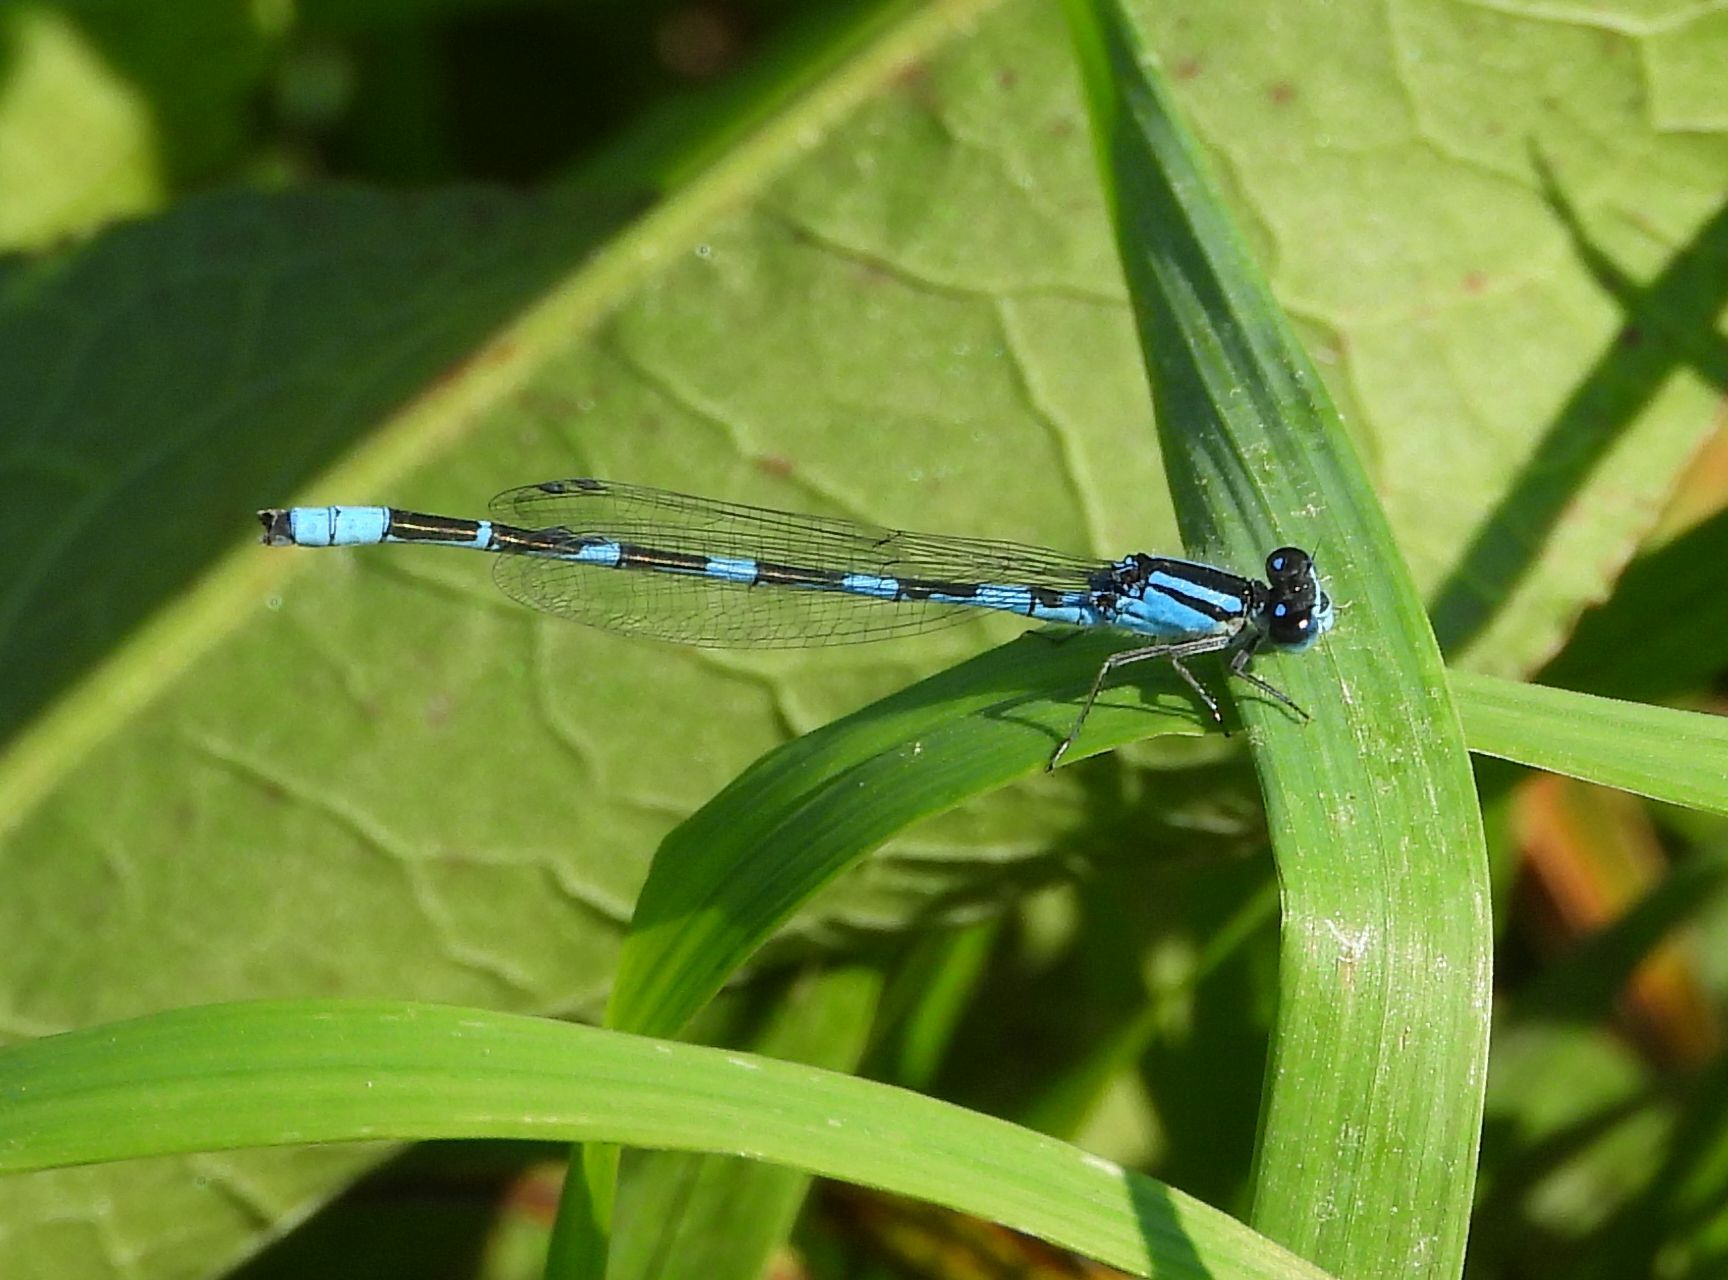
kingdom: Animalia
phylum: Arthropoda
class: Insecta
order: Odonata
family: Coenagrionidae
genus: Enallagma
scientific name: Enallagma carunculatum
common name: Tule bluet
